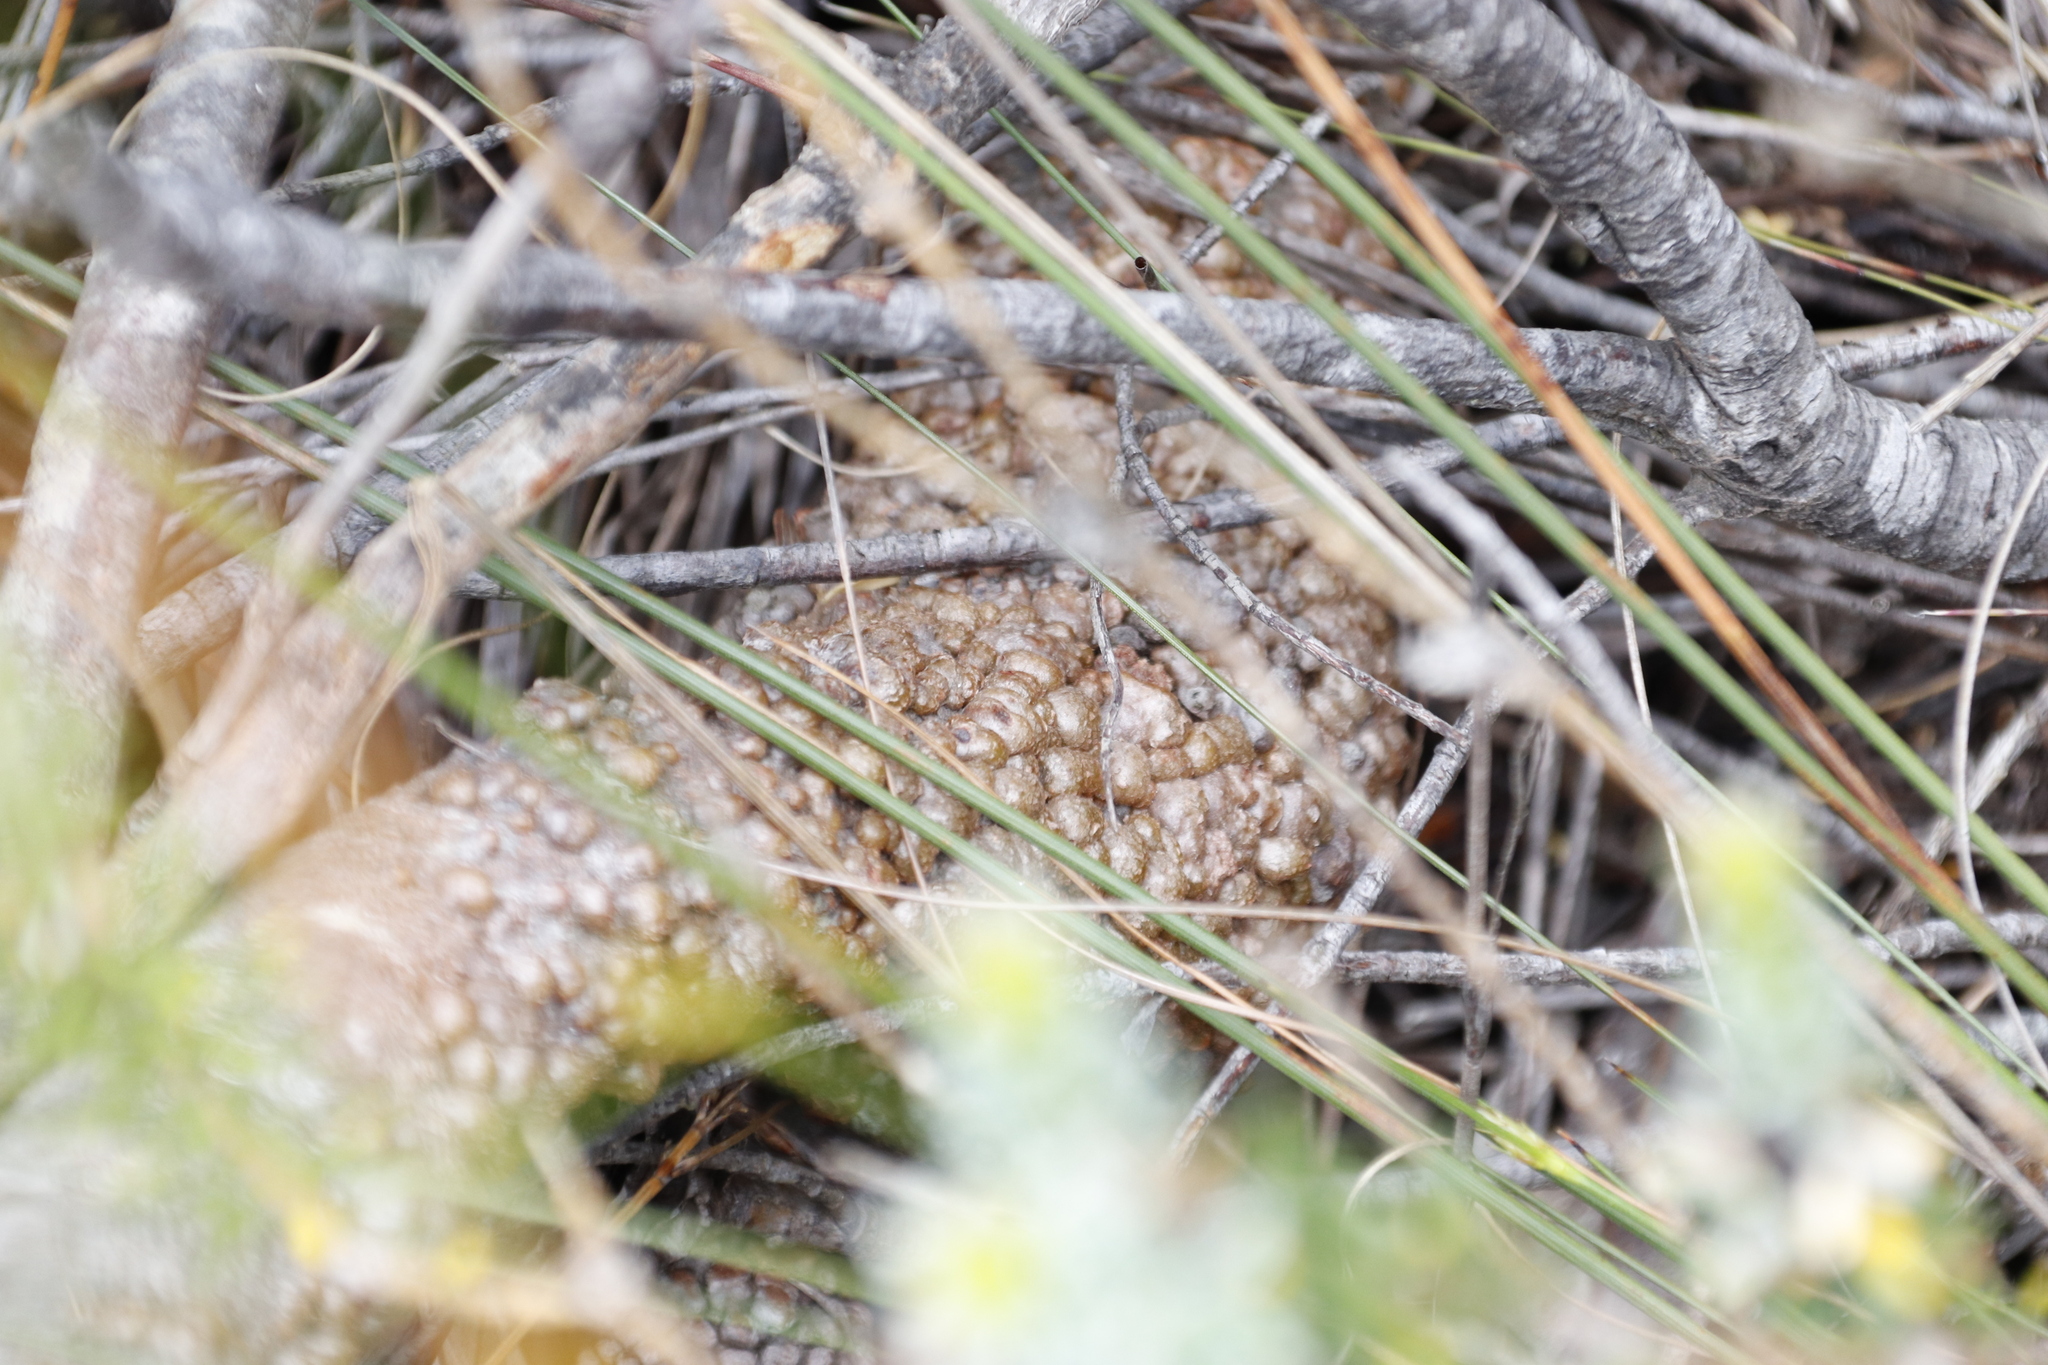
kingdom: Plantae
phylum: Tracheophyta
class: Magnoliopsida
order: Proteales
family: Proteaceae
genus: Leucospermum
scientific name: Leucospermum cuneiforme
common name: Common pincushion
